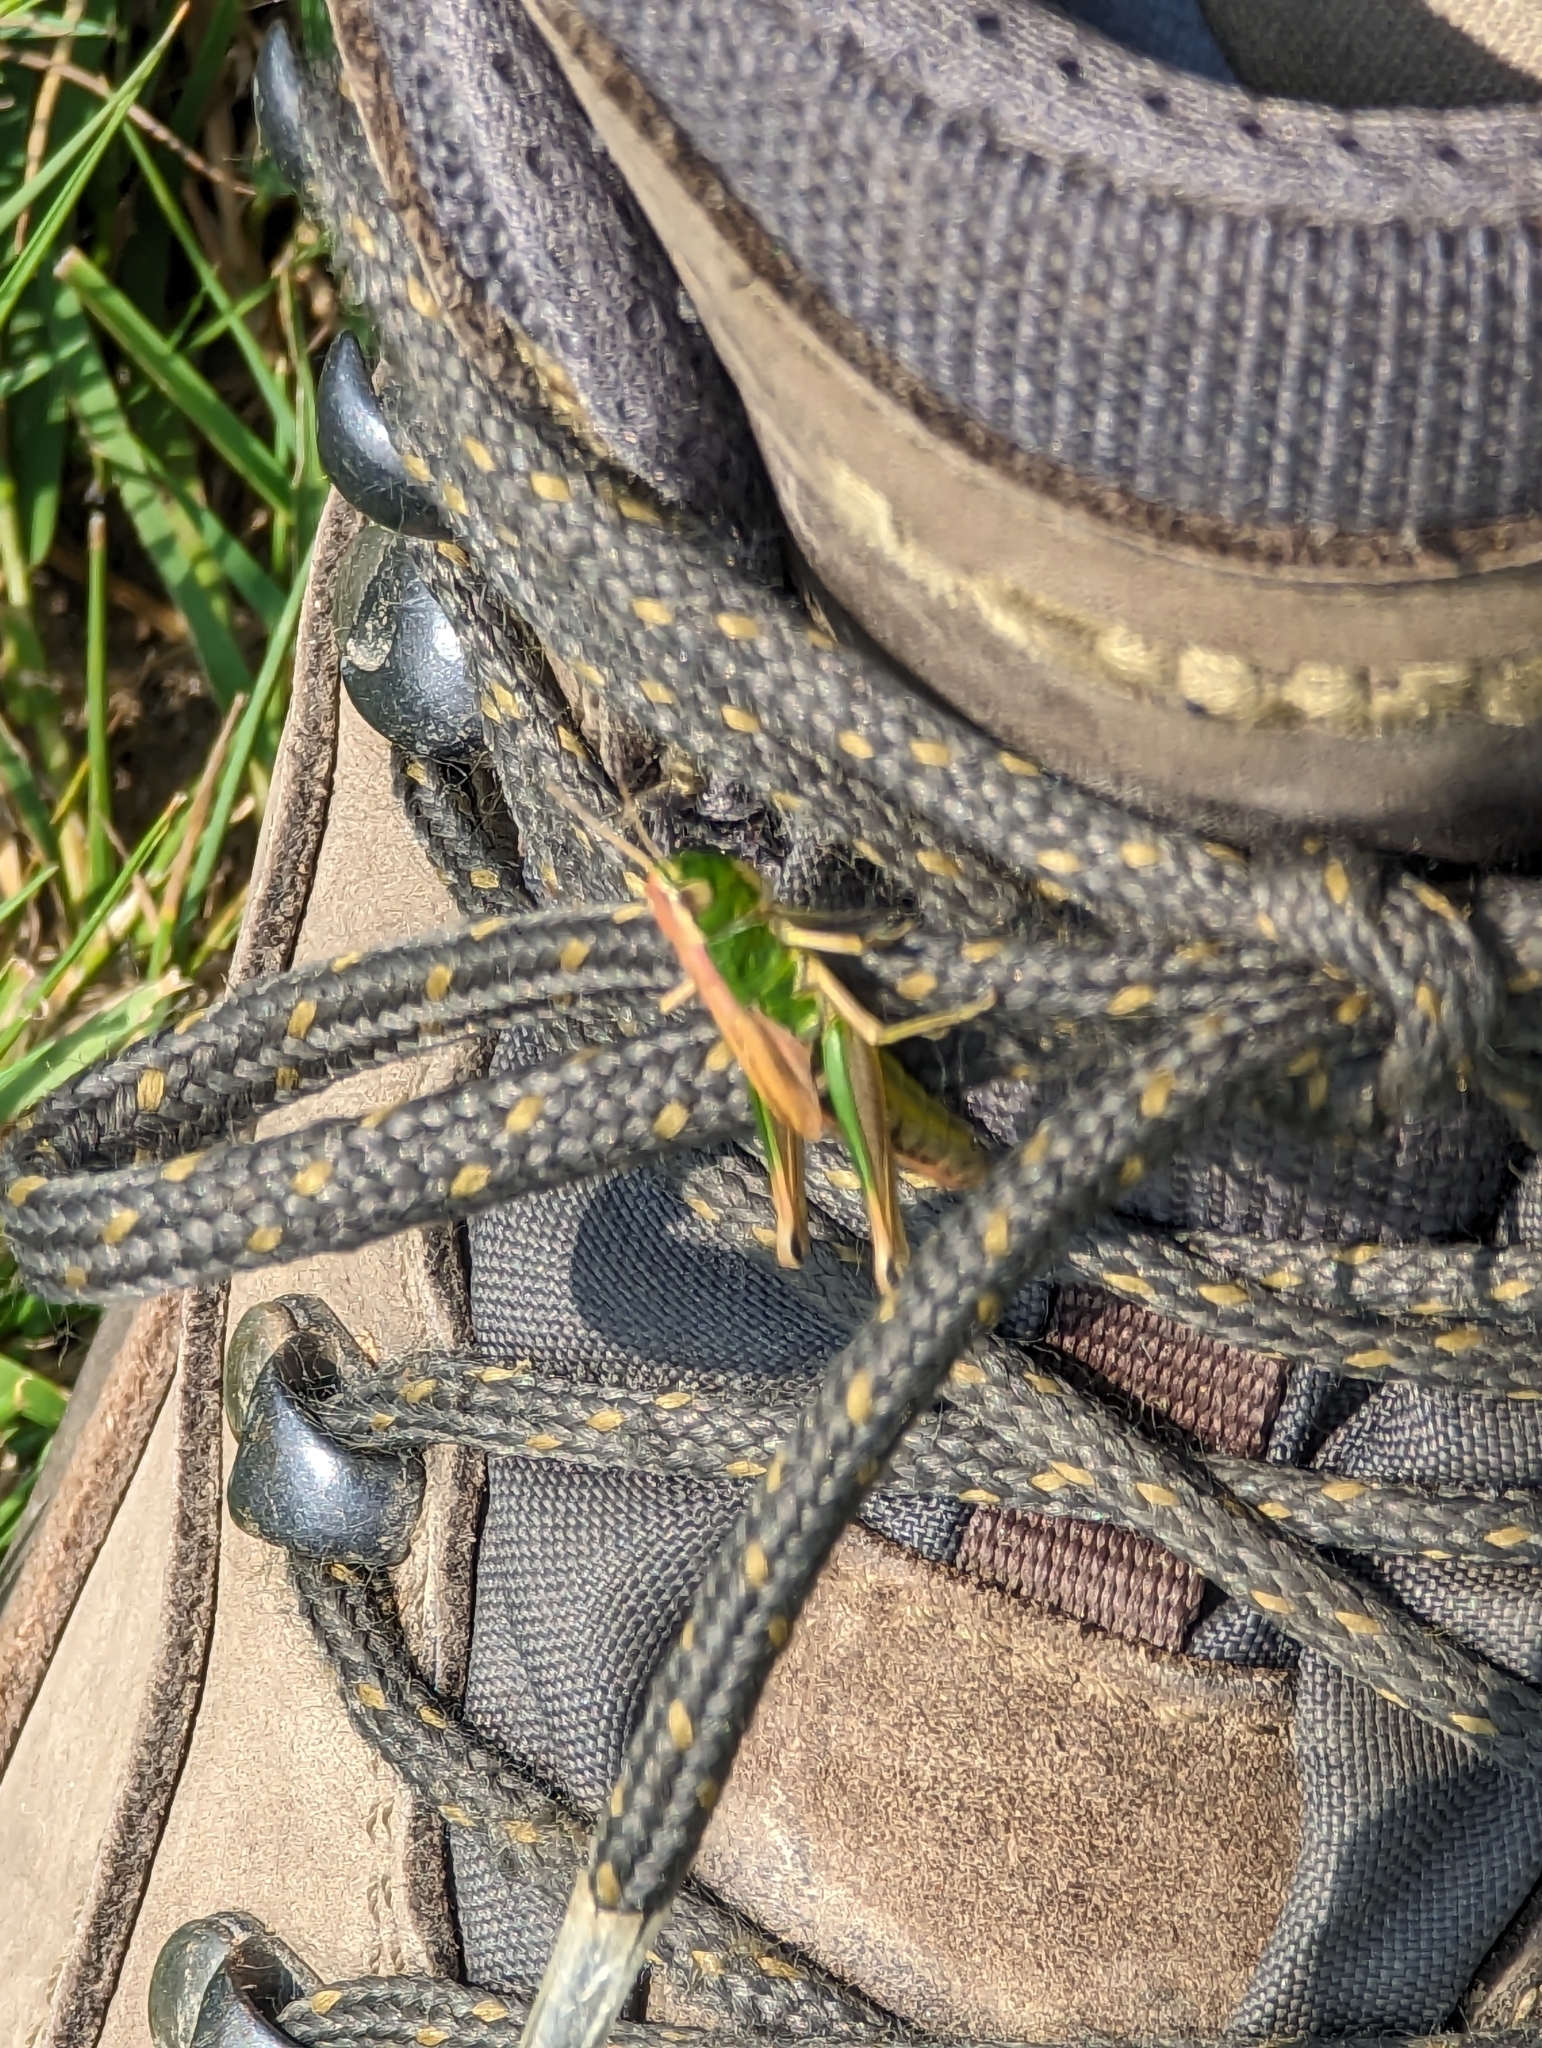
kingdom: Animalia
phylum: Arthropoda
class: Insecta
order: Orthoptera
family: Acrididae
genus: Pseudochorthippus
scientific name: Pseudochorthippus parallelus
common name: Meadow grasshopper
